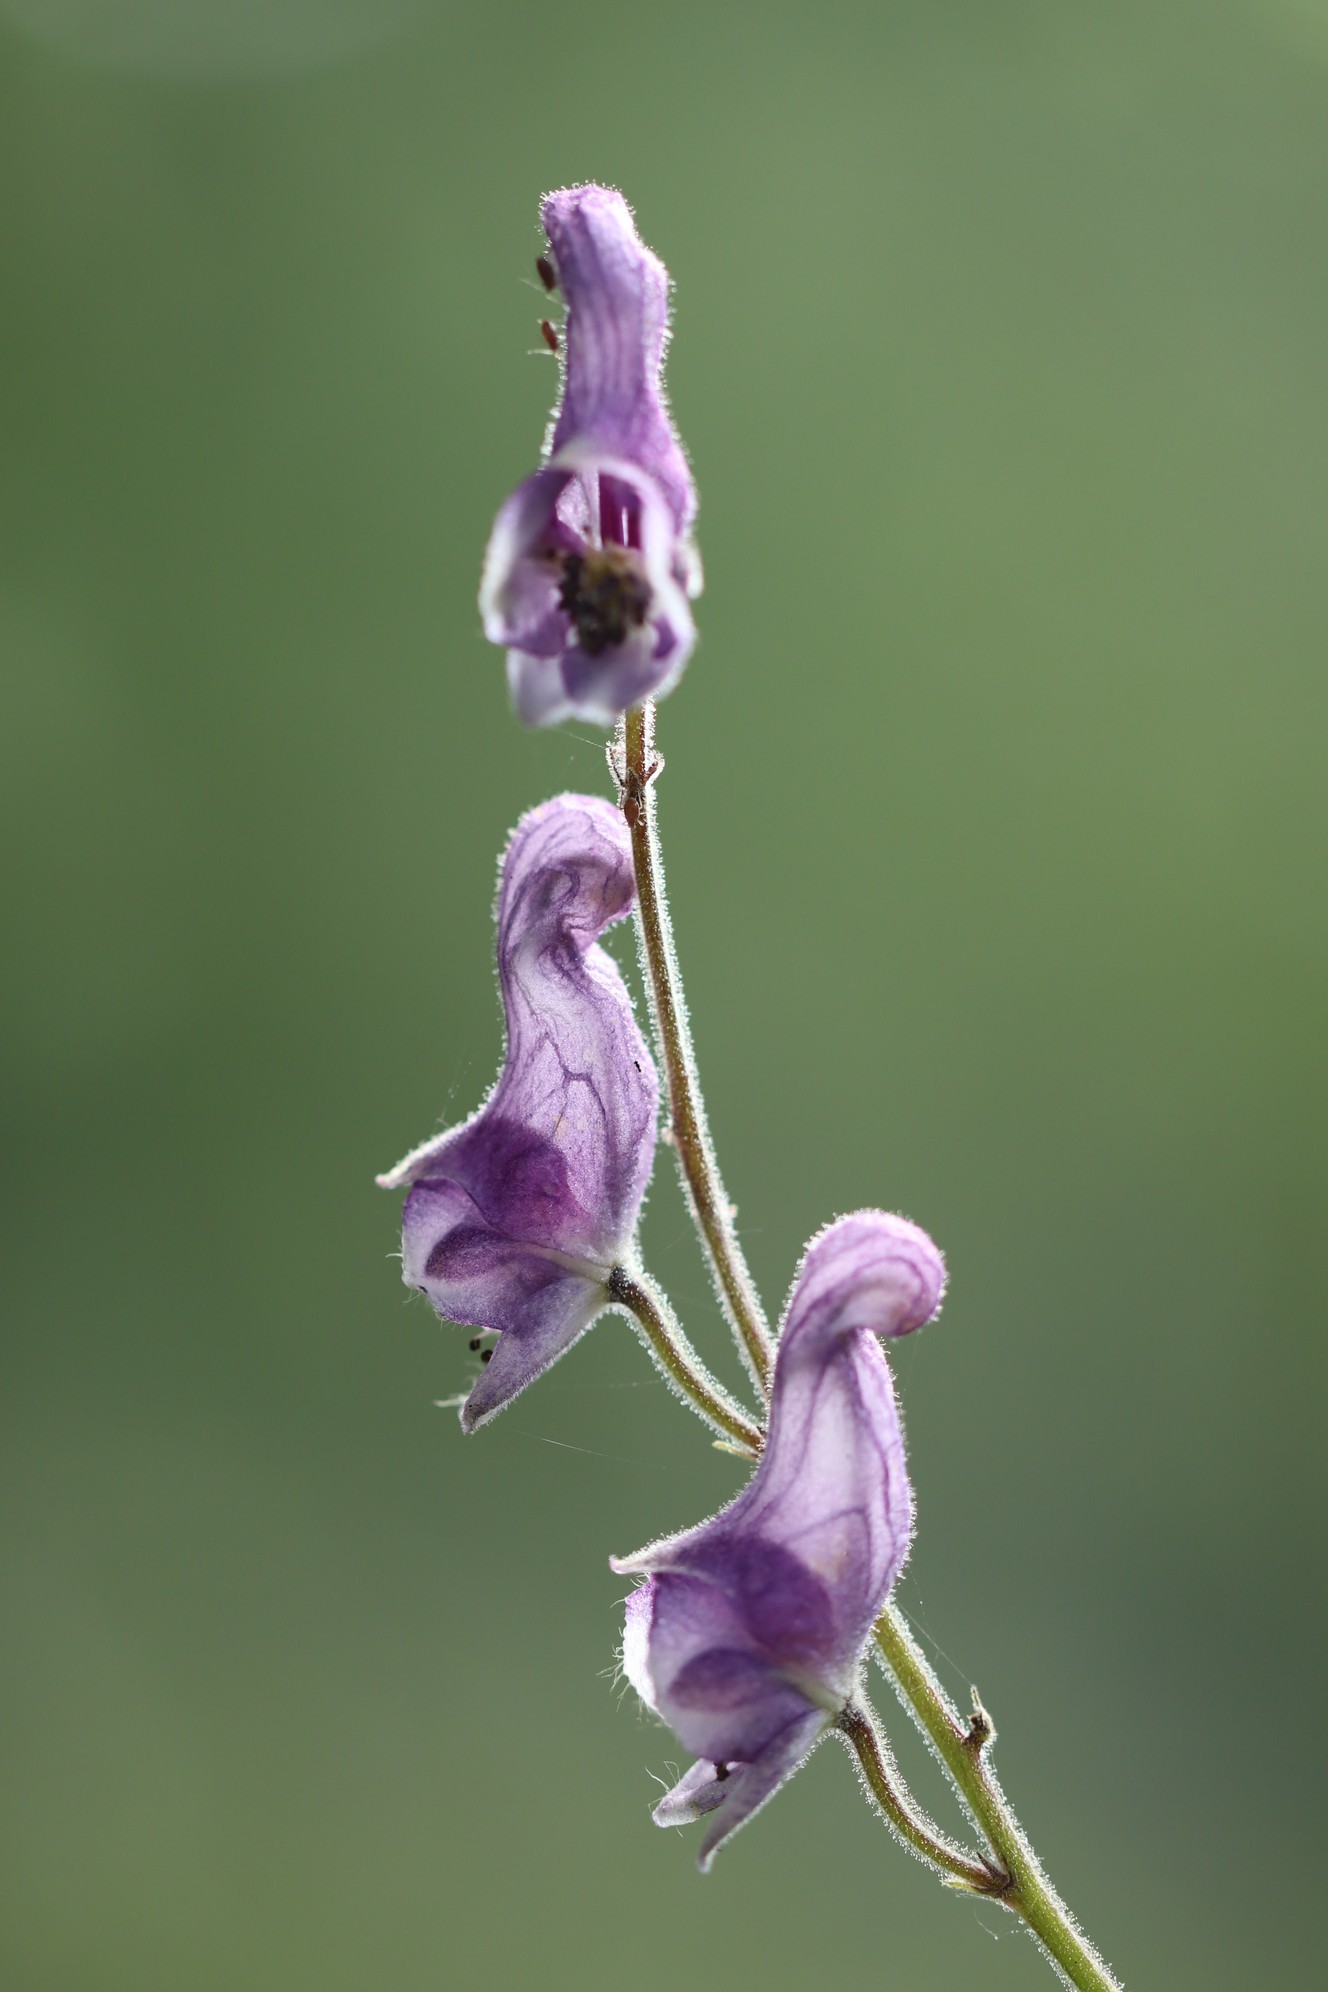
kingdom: Plantae
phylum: Tracheophyta
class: Magnoliopsida
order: Ranunculales
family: Ranunculaceae
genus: Aconitum
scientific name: Aconitum septentrionale
